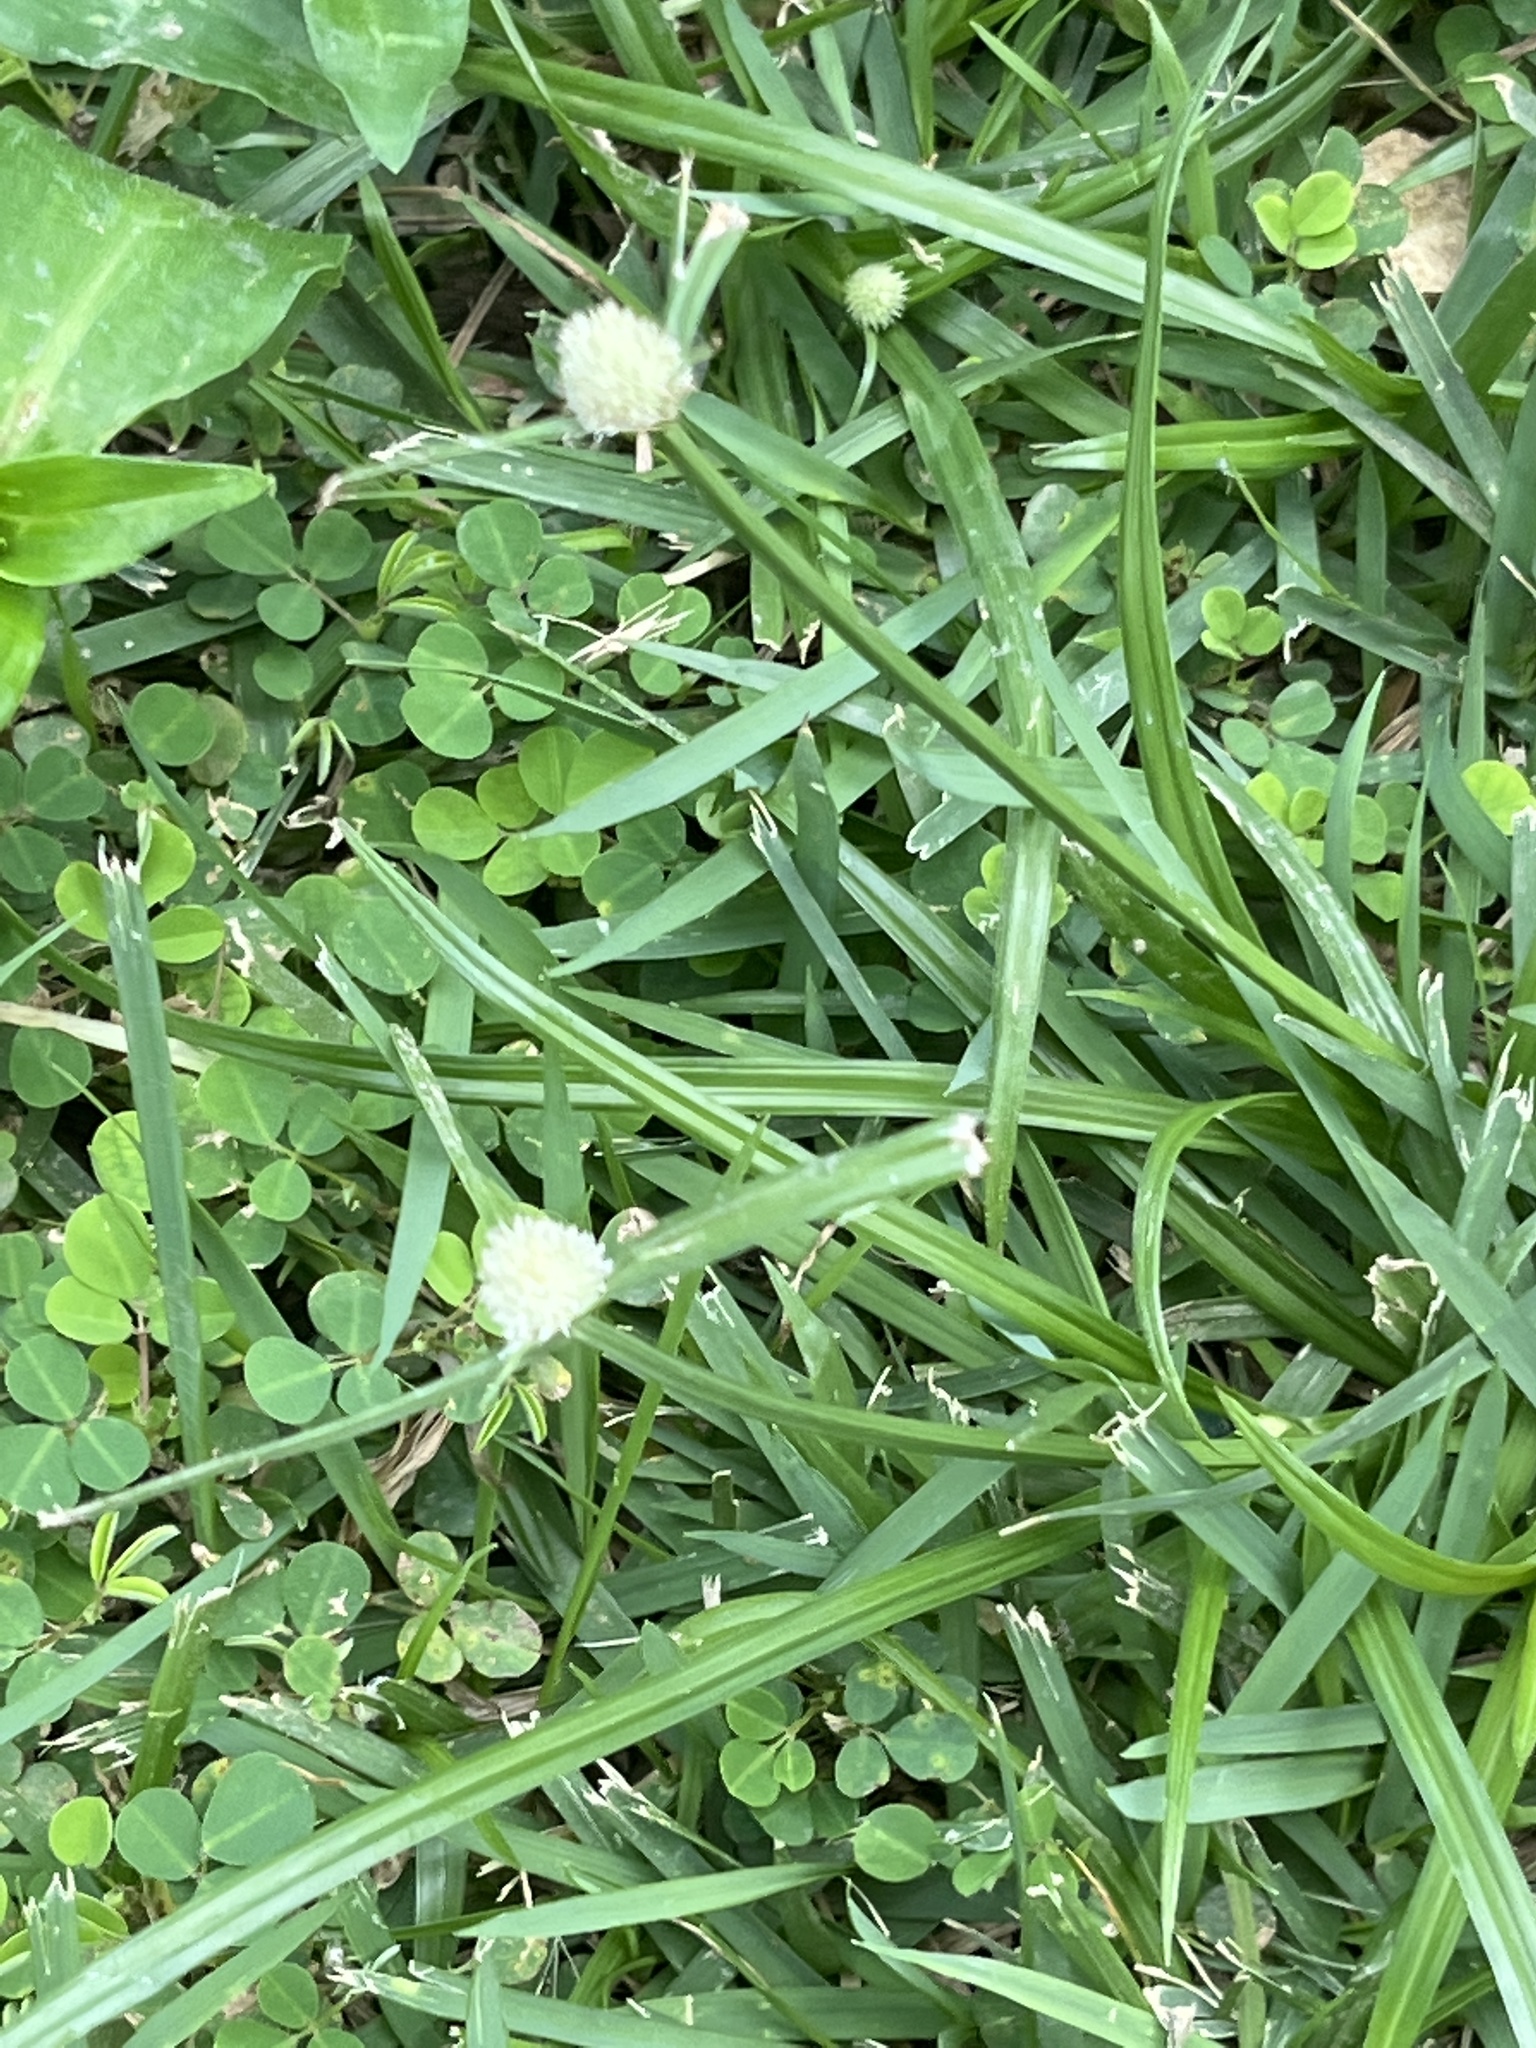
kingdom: Plantae
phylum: Tracheophyta
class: Liliopsida
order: Poales
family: Cyperaceae
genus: Cyperus
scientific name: Cyperus mindorensis
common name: Flatsedge
